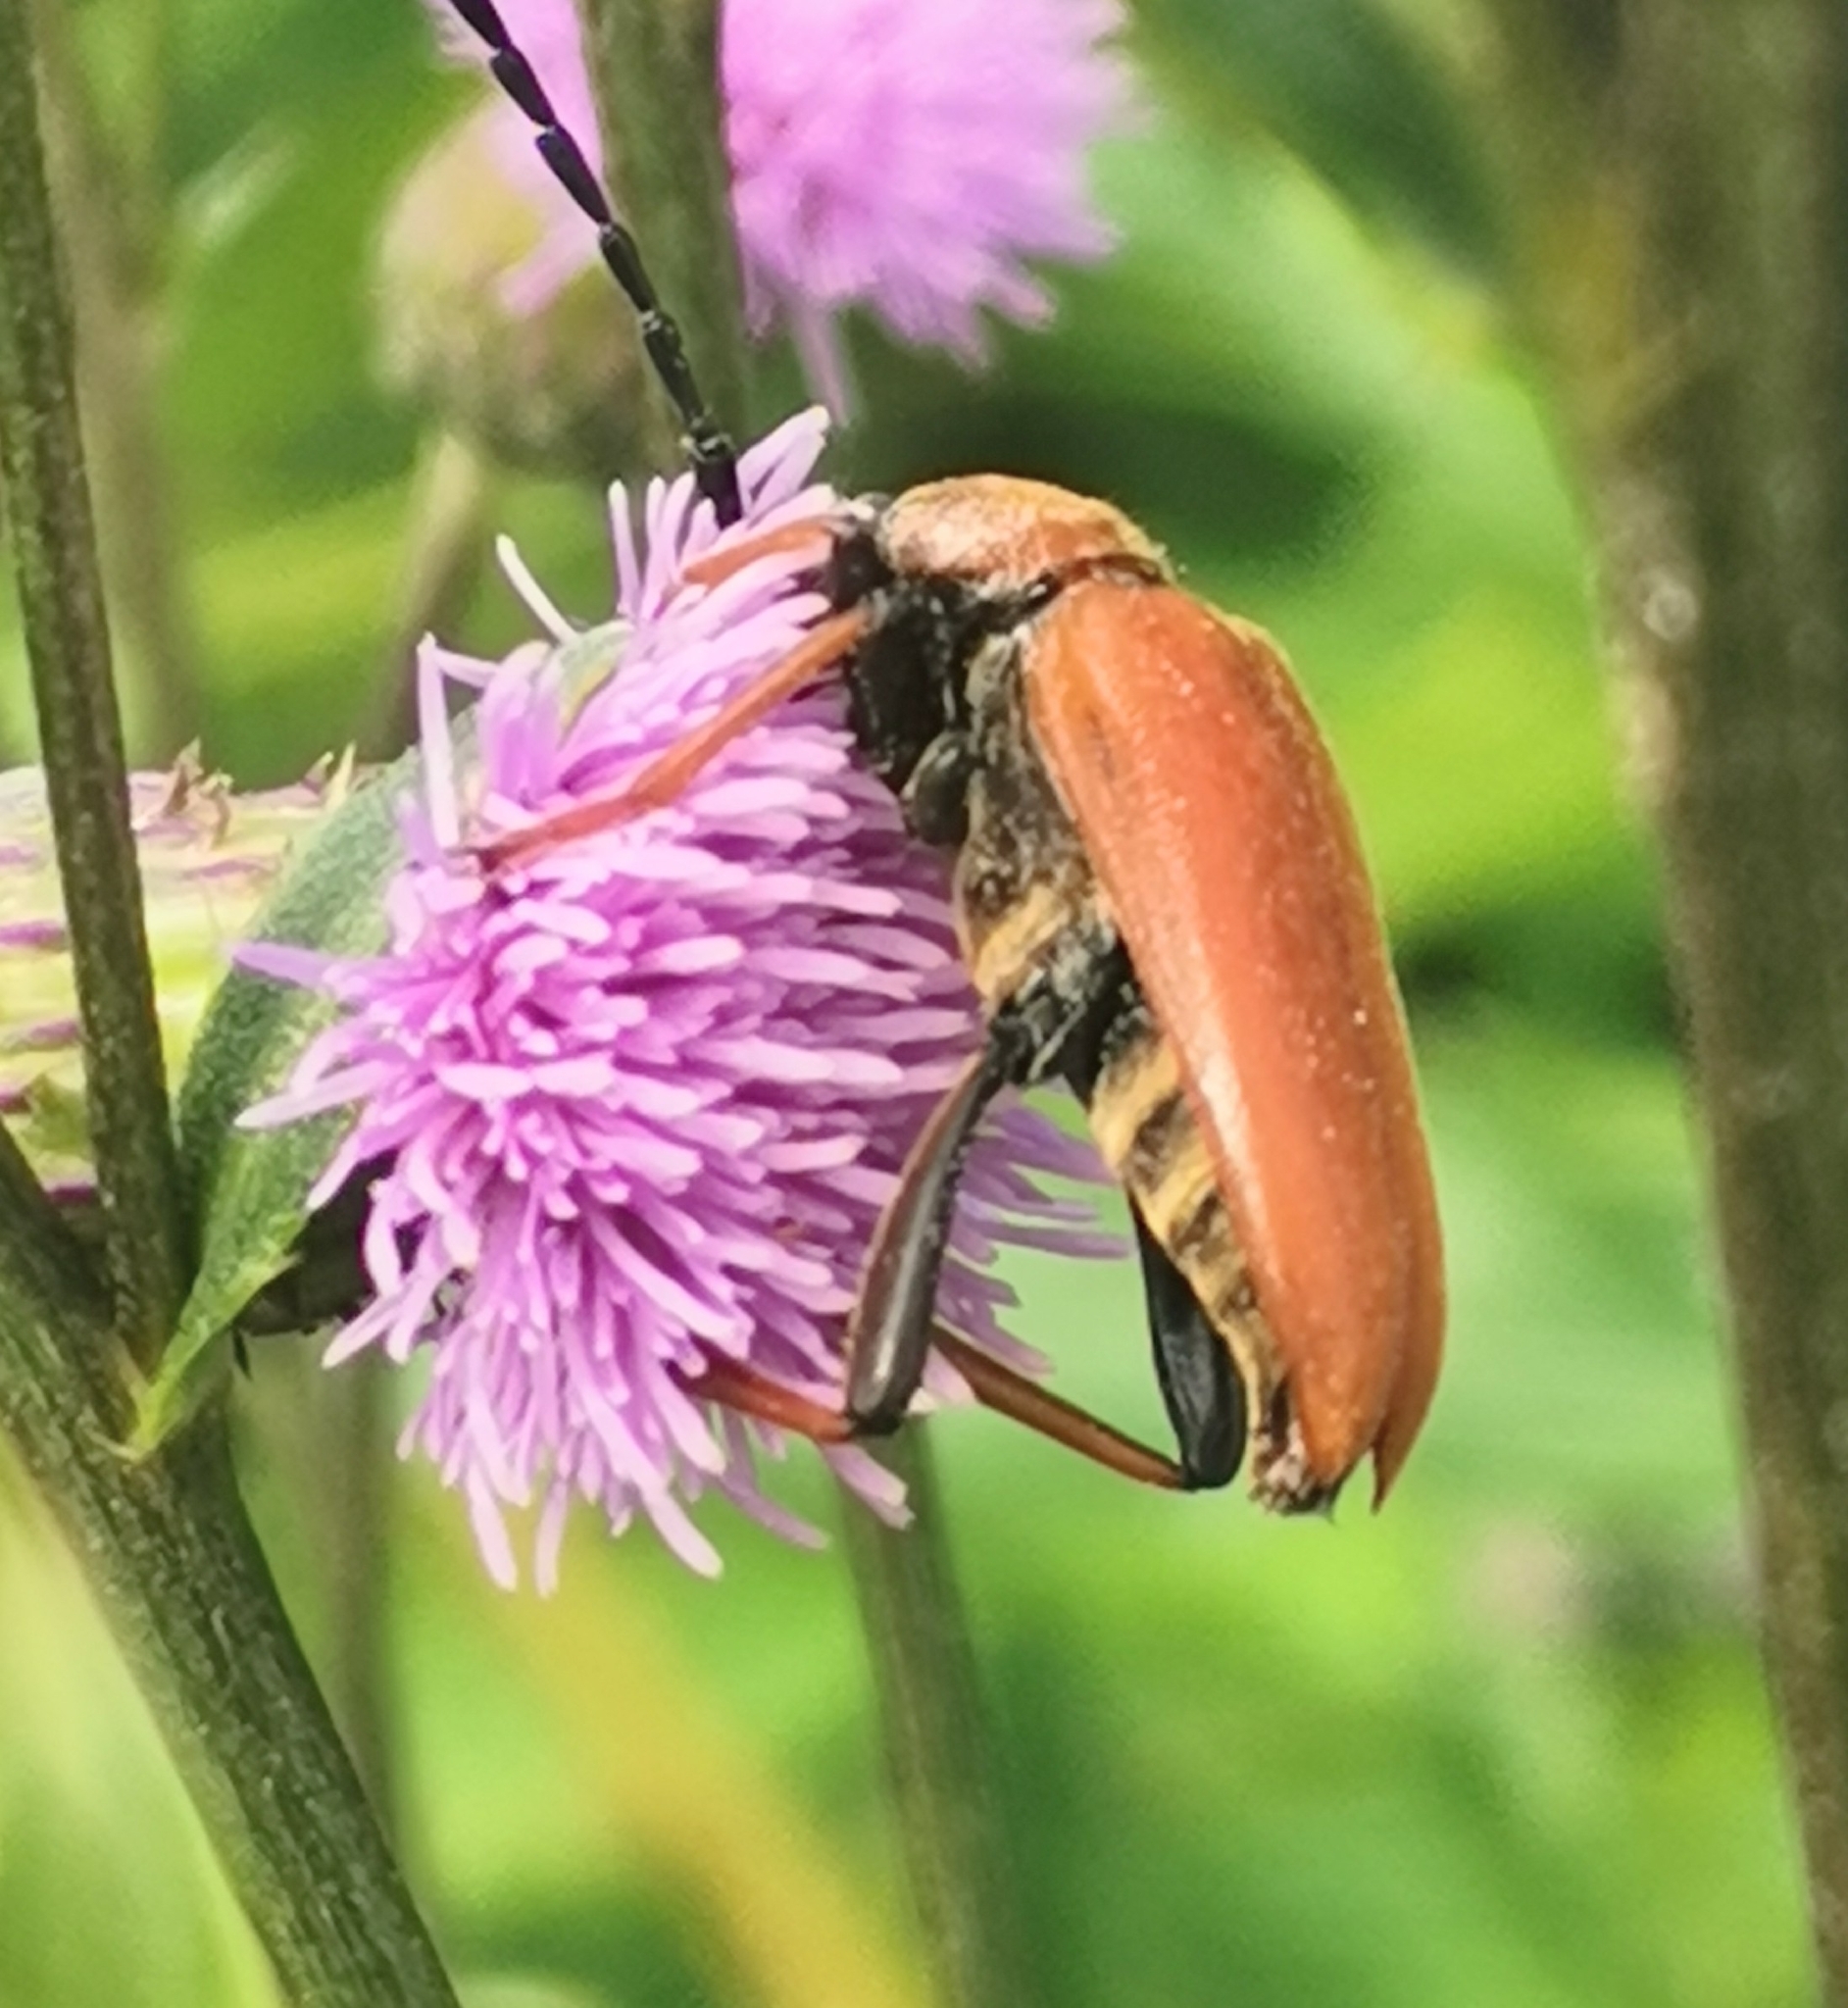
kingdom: Animalia
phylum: Arthropoda
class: Insecta
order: Coleoptera
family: Cerambycidae
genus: Stictoleptura
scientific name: Stictoleptura rubra
